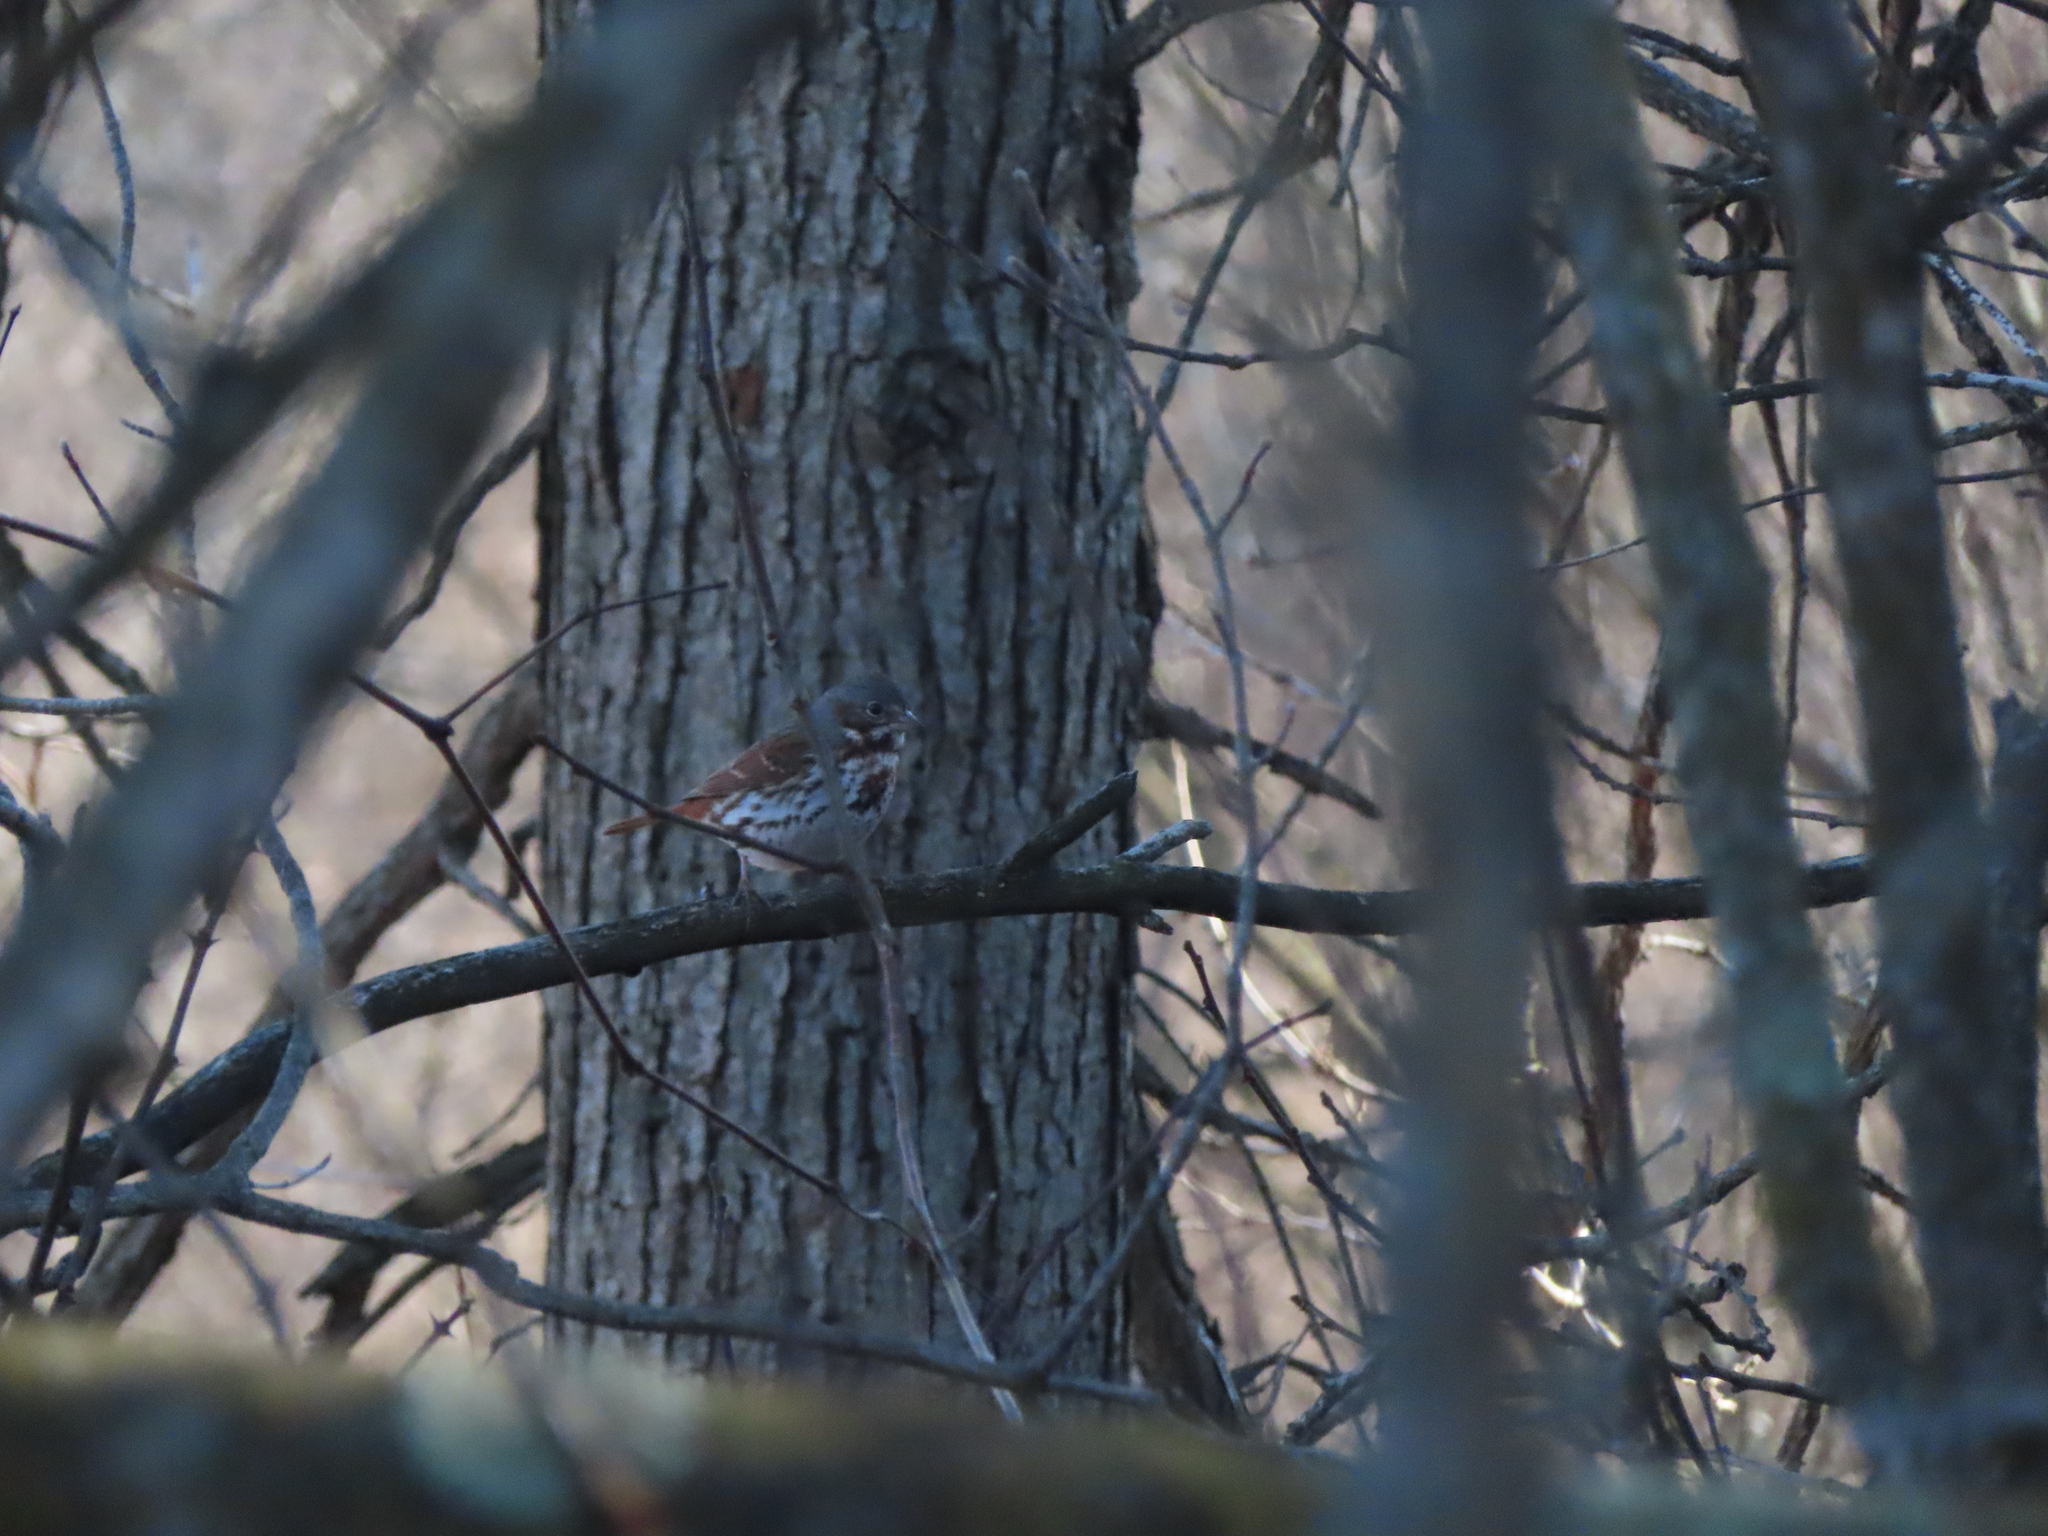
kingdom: Animalia
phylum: Chordata
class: Aves
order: Passeriformes
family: Passerellidae
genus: Passerella
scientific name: Passerella iliaca
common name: Fox sparrow
